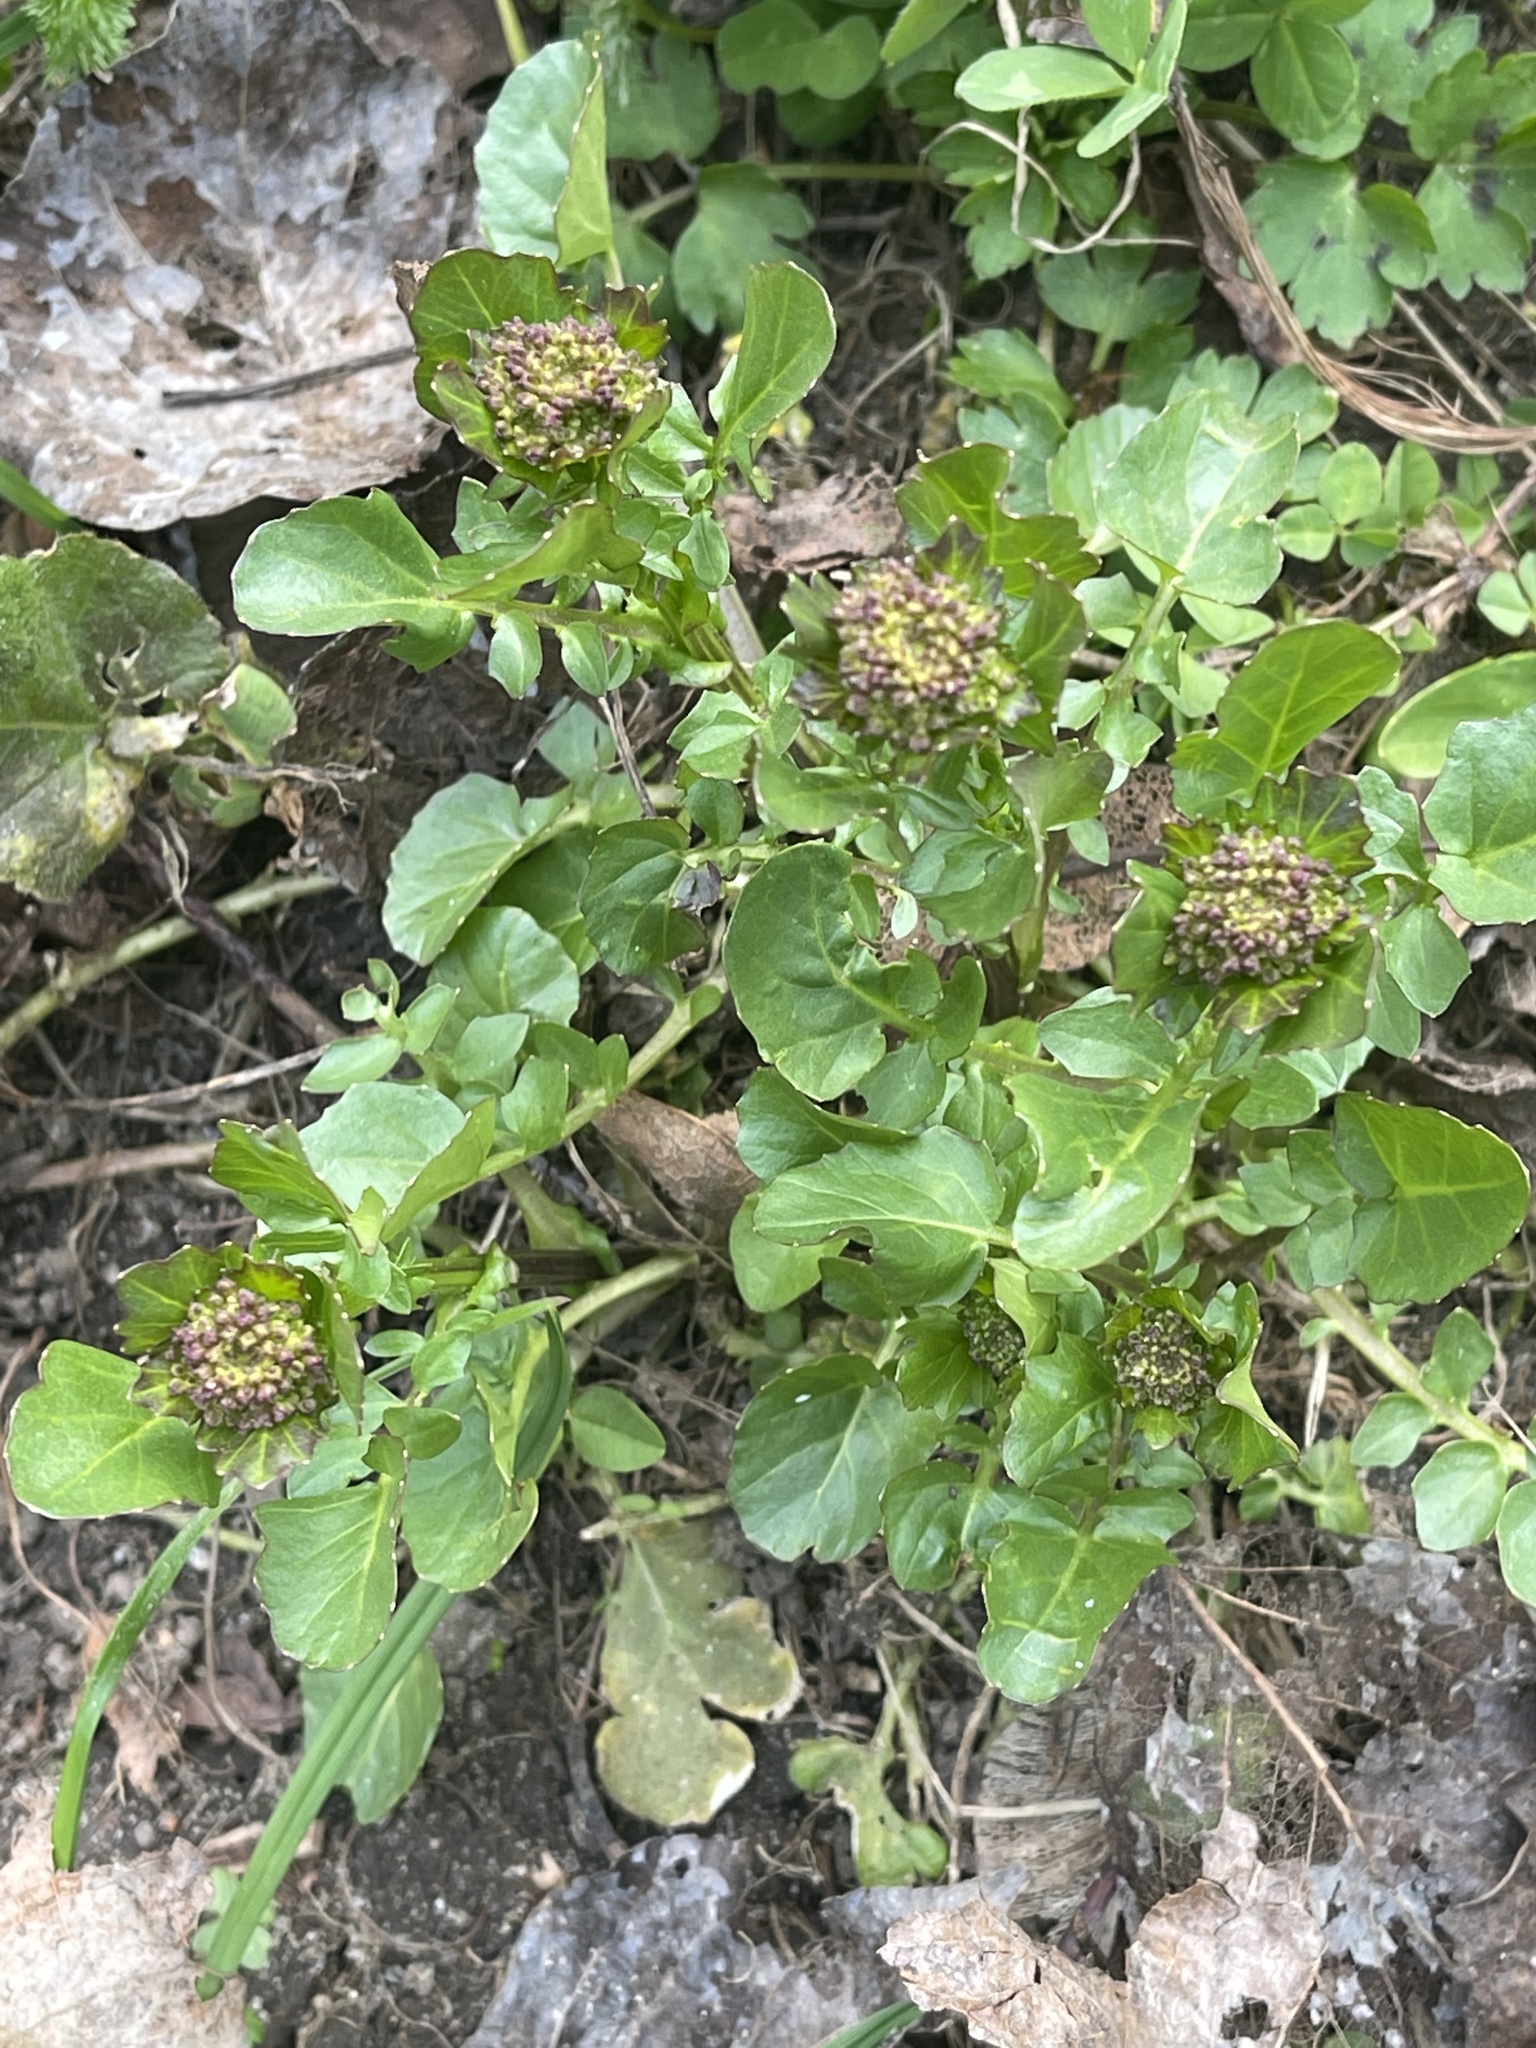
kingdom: Plantae
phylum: Tracheophyta
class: Magnoliopsida
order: Brassicales
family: Brassicaceae
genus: Barbarea
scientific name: Barbarea vulgaris
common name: Cressy-greens
